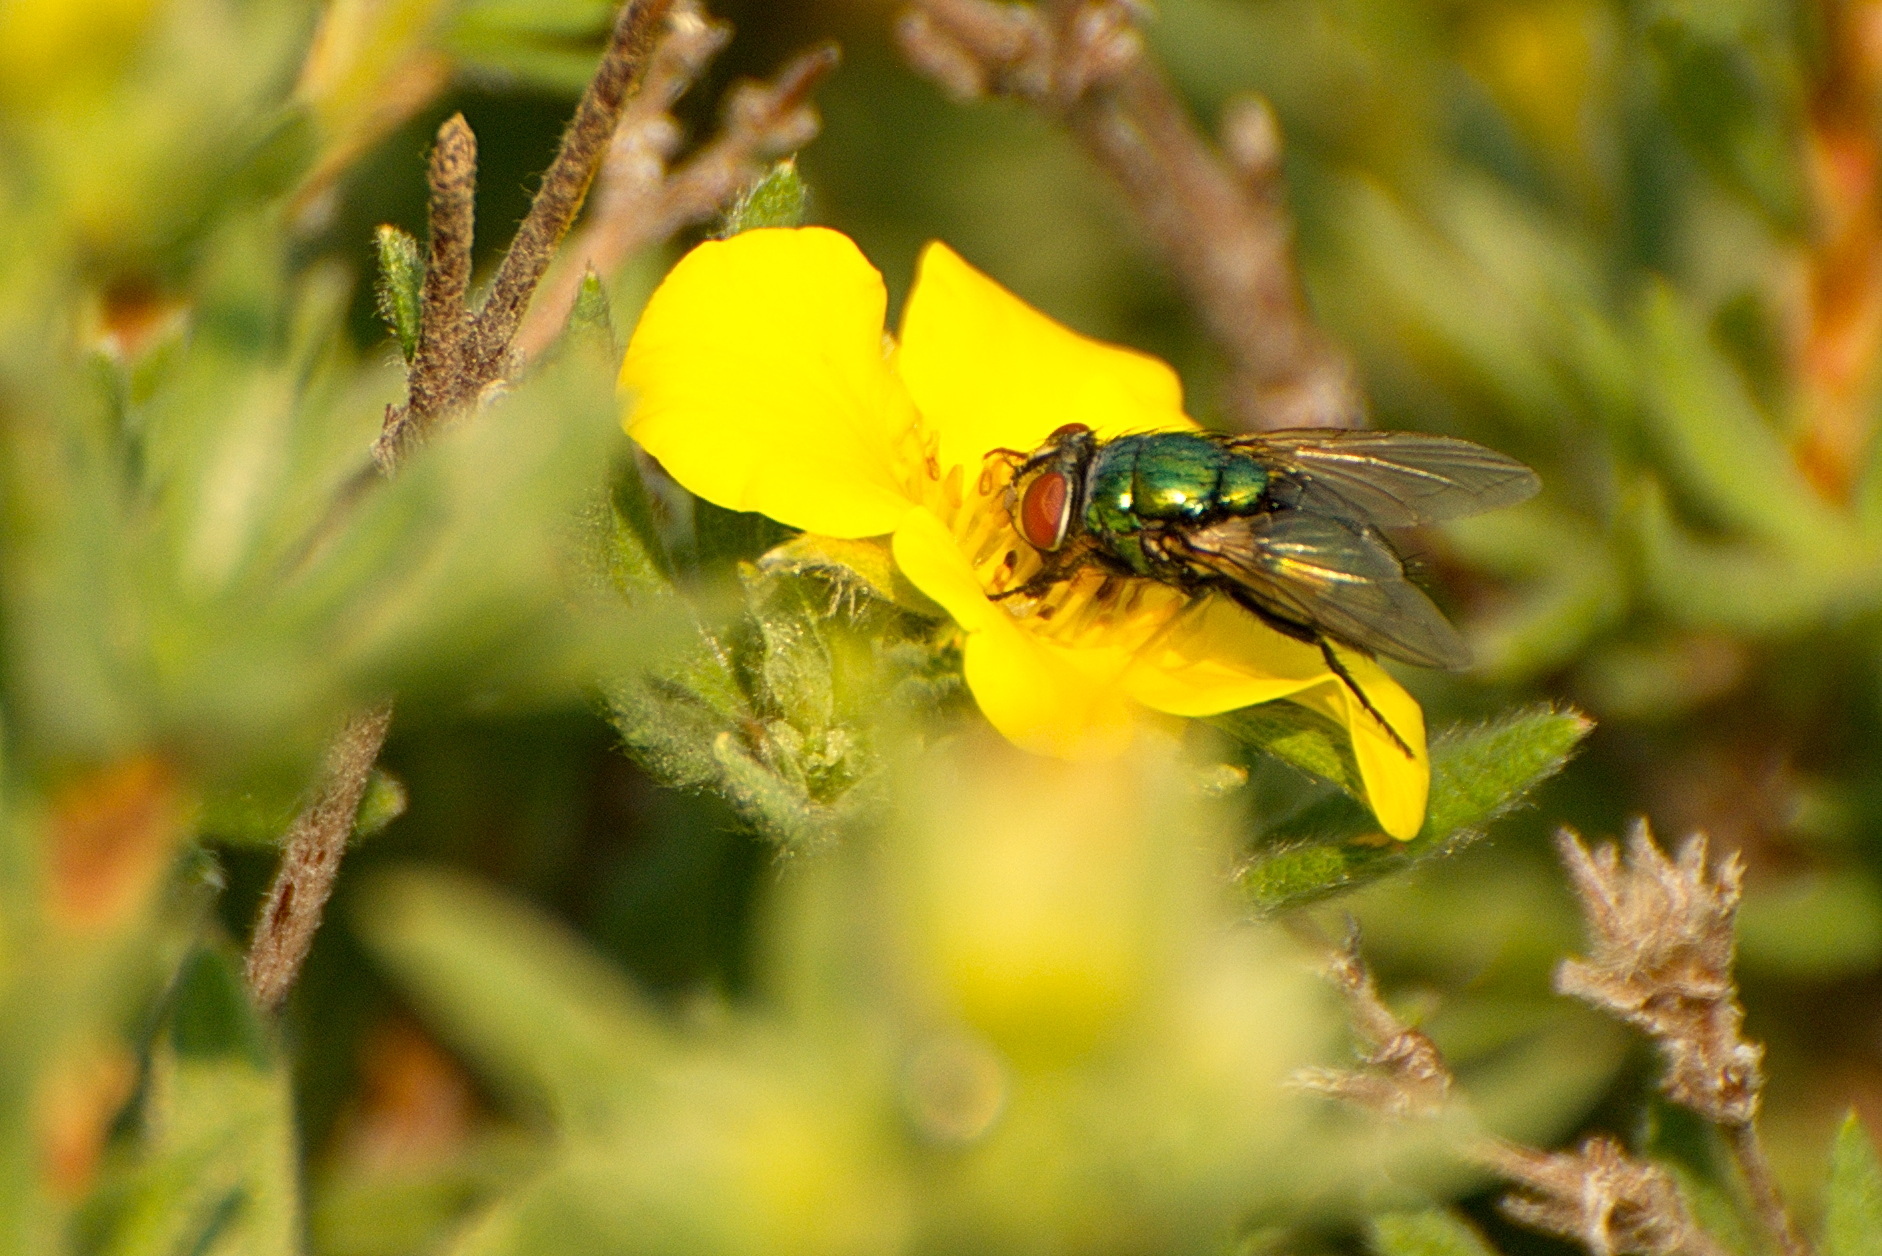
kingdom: Animalia
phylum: Arthropoda
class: Insecta
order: Diptera
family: Calliphoridae
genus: Lucilia
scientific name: Lucilia sericata
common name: Blow fly
